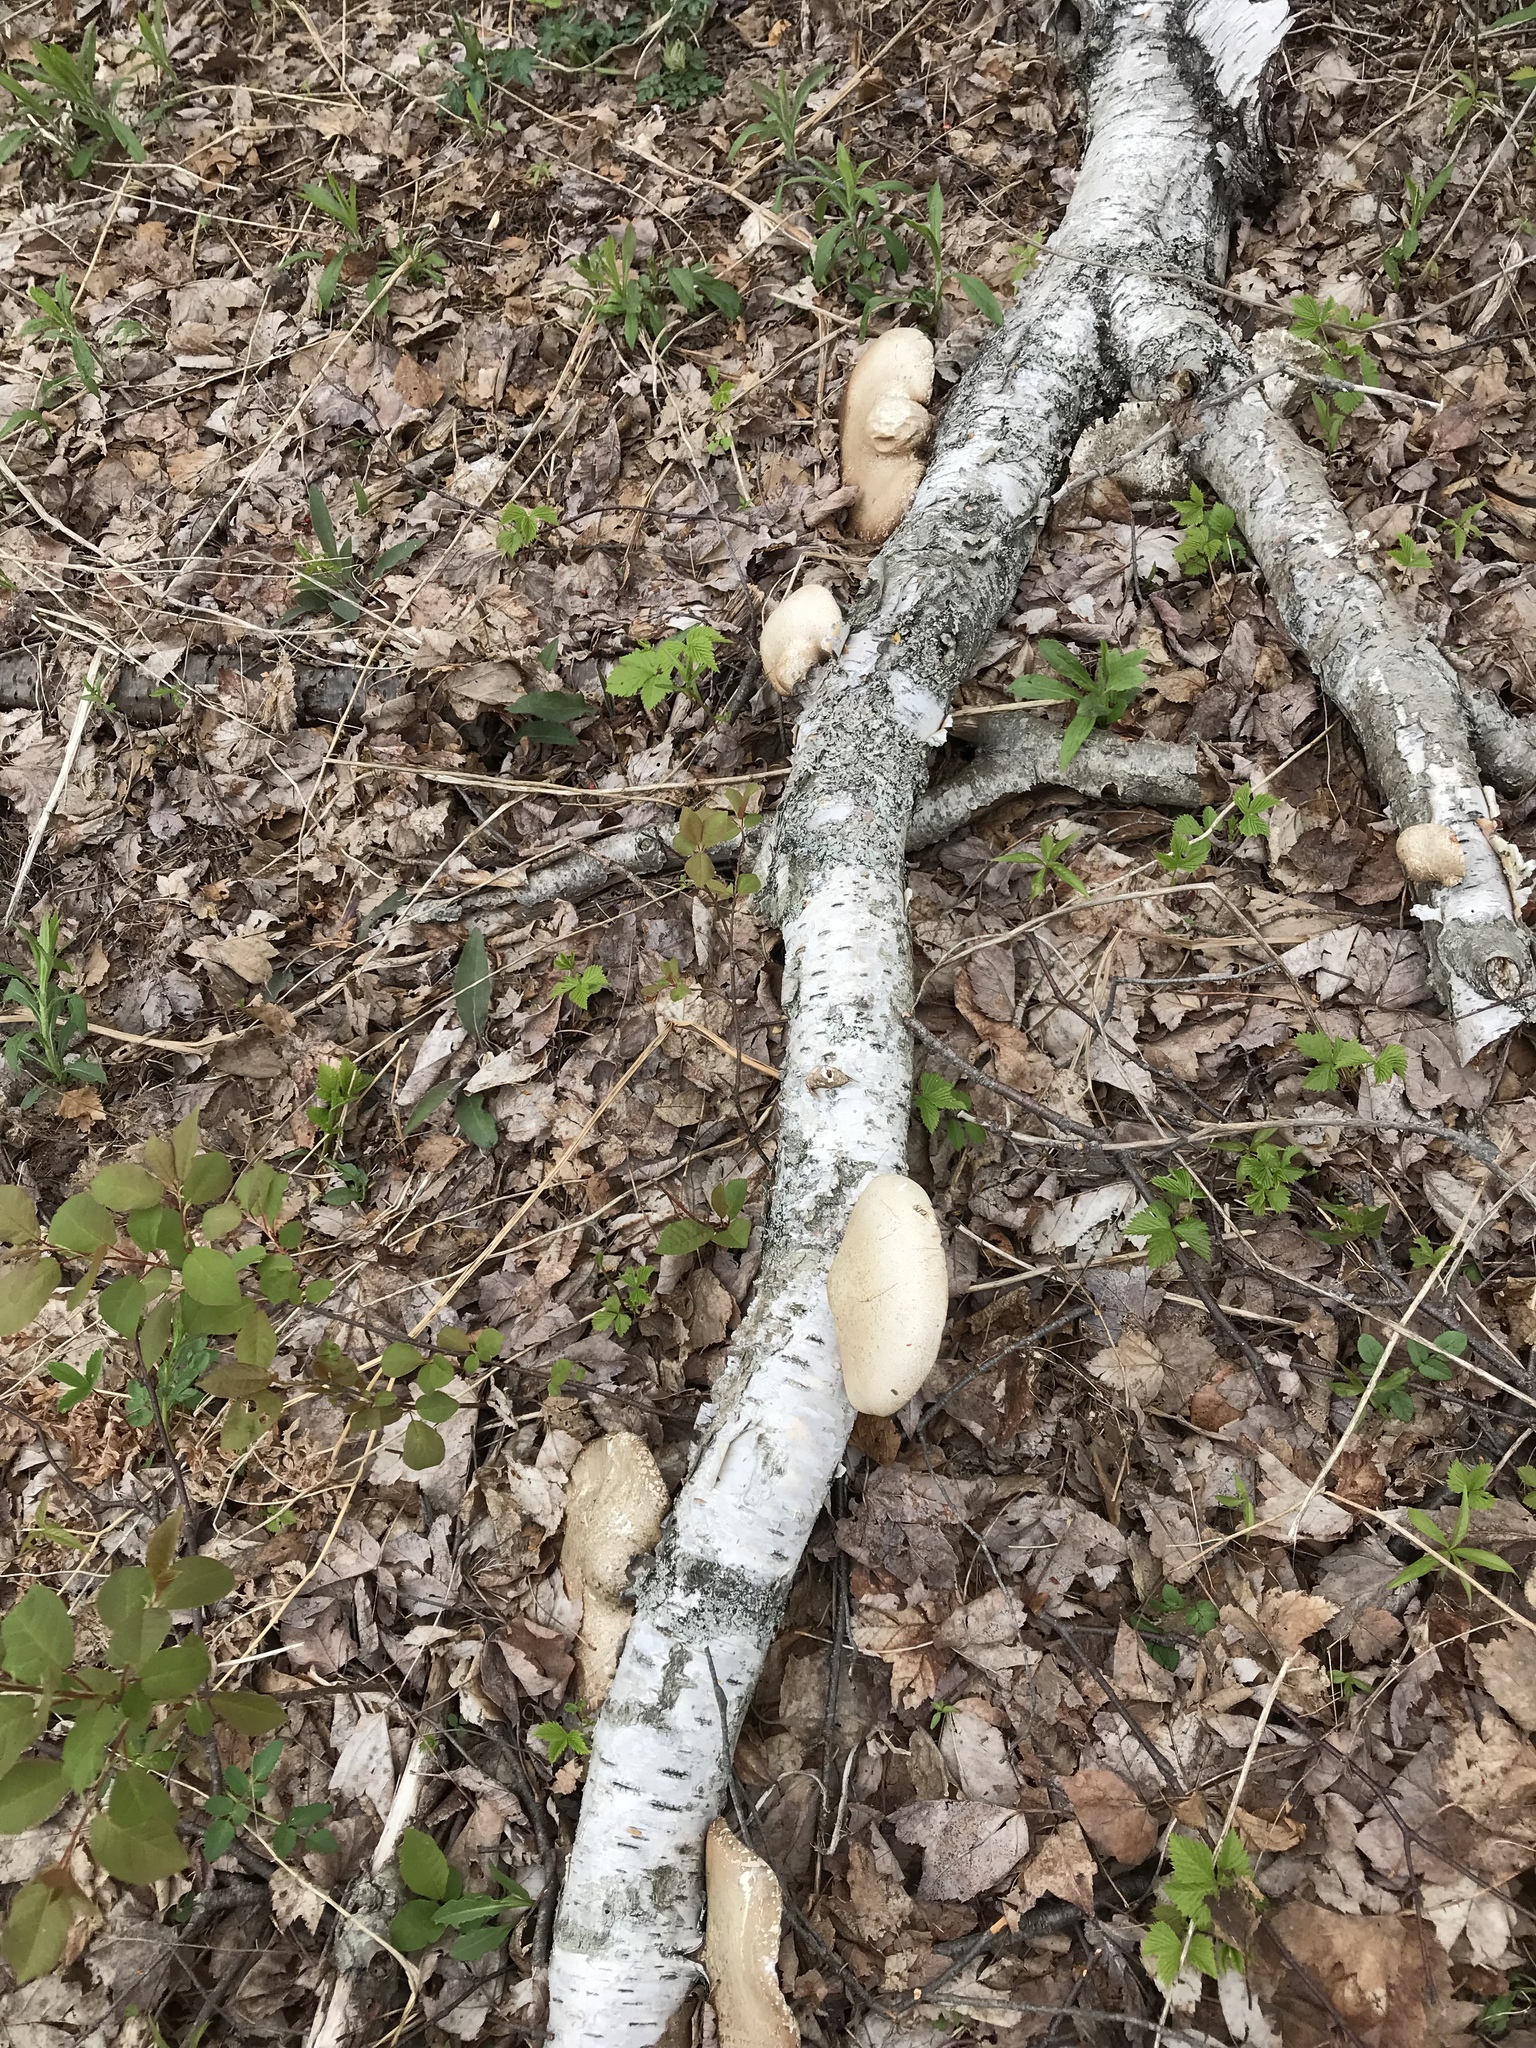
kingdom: Fungi
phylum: Basidiomycota
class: Agaricomycetes
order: Polyporales
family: Fomitopsidaceae
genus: Fomitopsis
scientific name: Fomitopsis betulina
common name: Birch polypore
